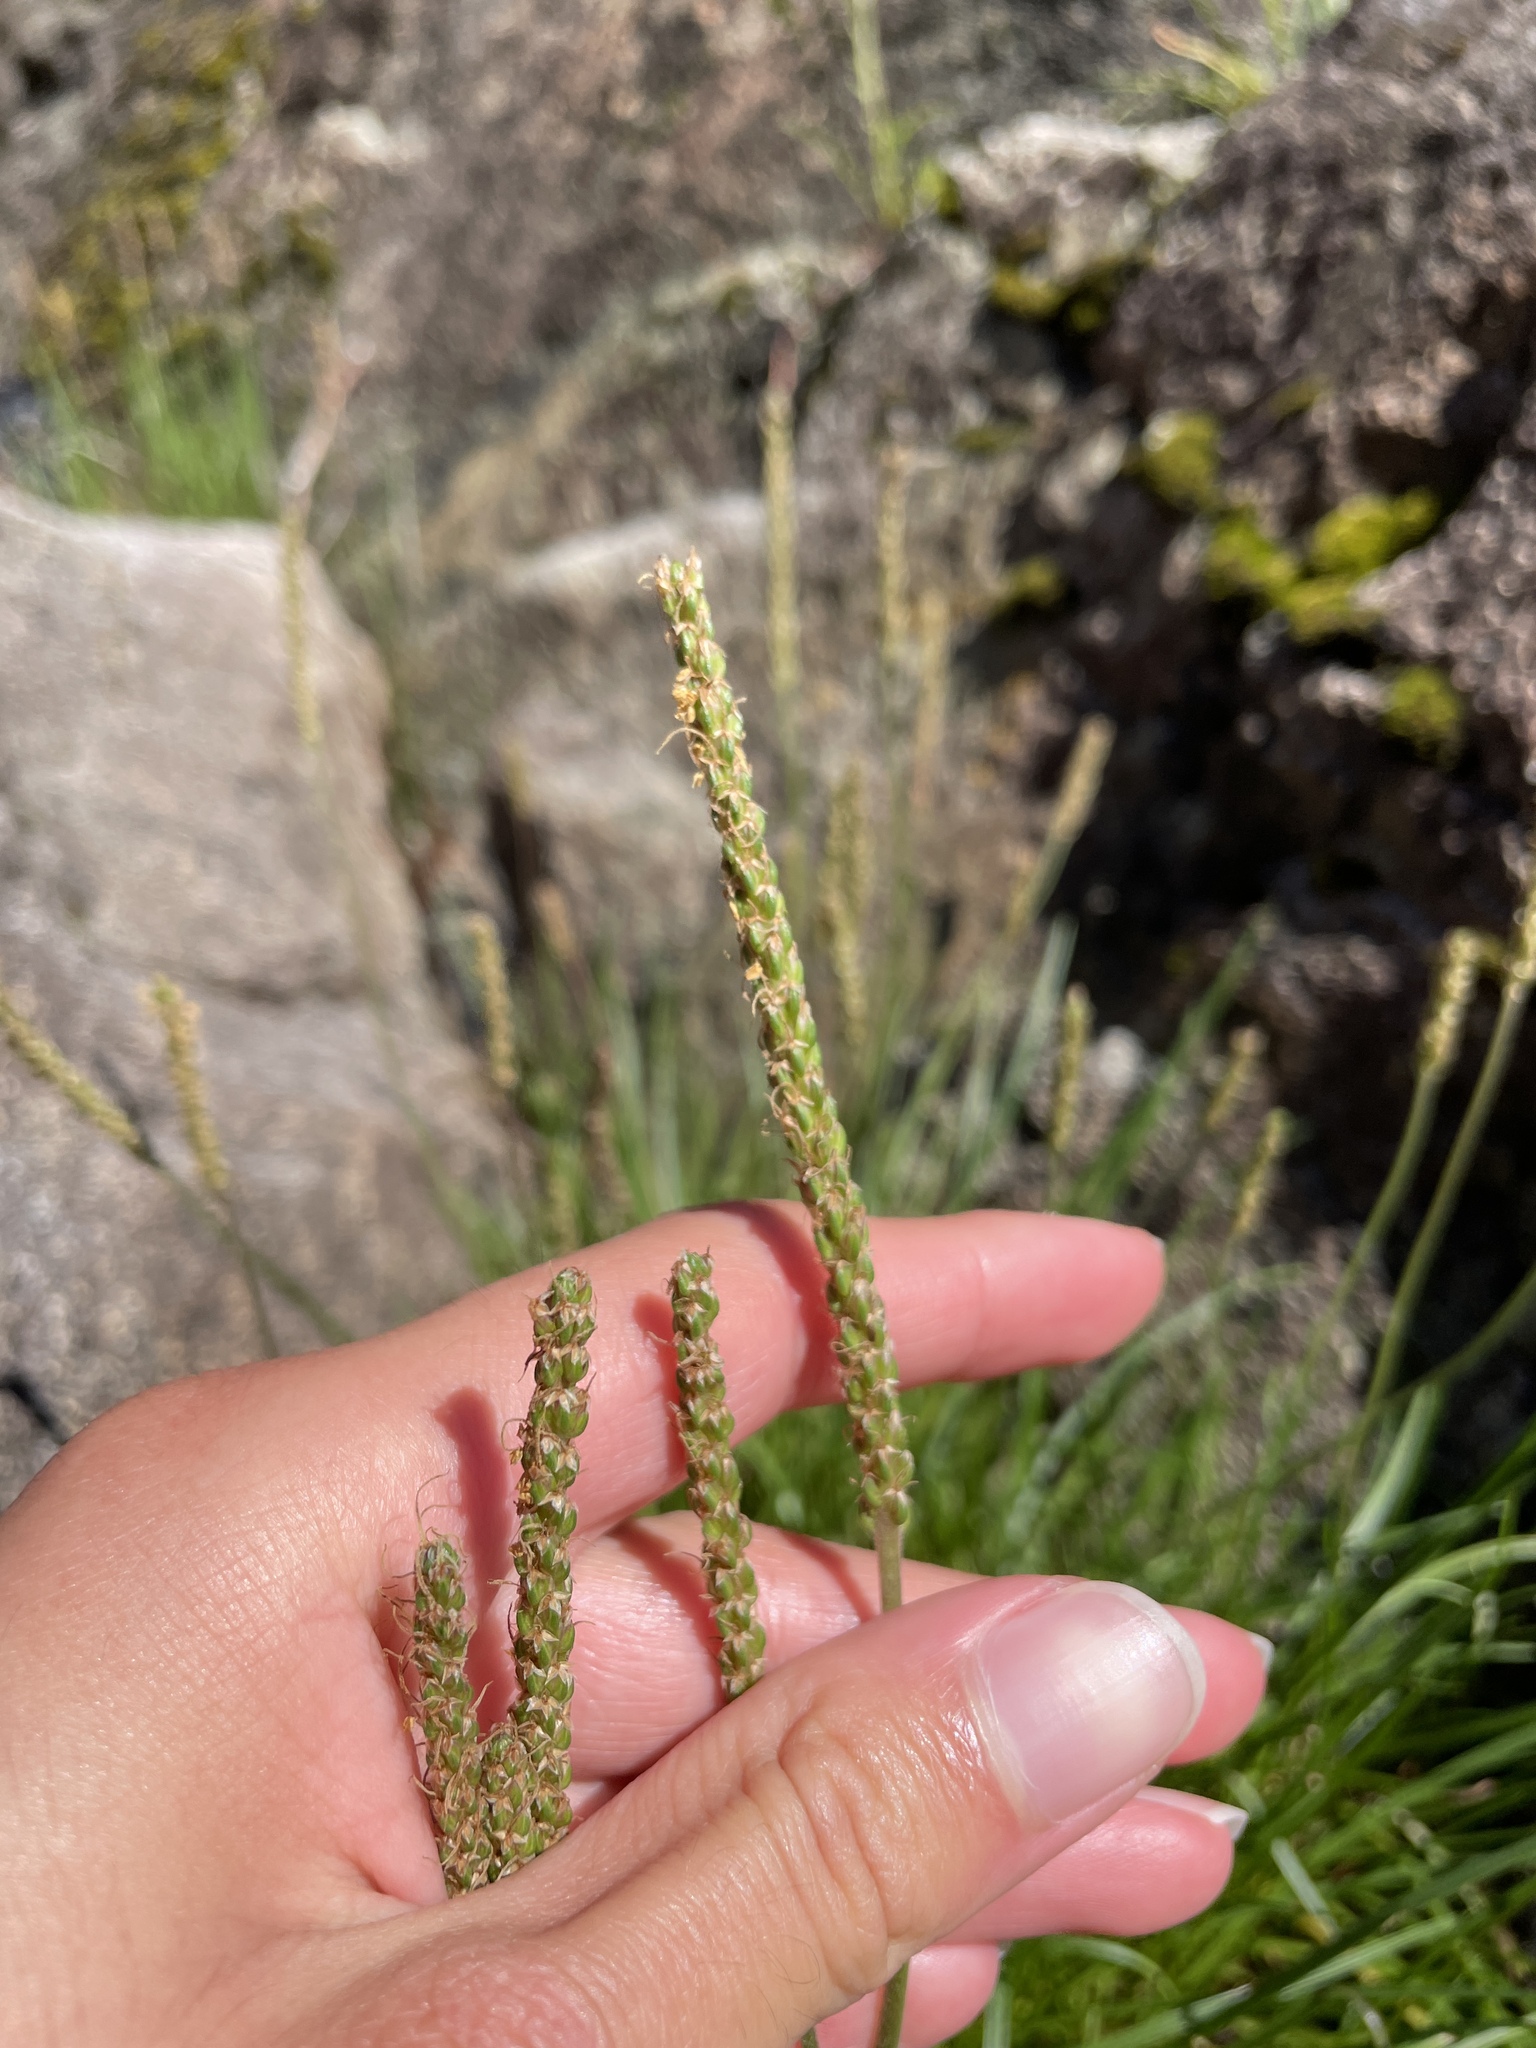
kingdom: Plantae
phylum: Tracheophyta
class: Magnoliopsida
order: Lamiales
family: Plantaginaceae
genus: Plantago
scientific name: Plantago maritima
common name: Sea plantain
